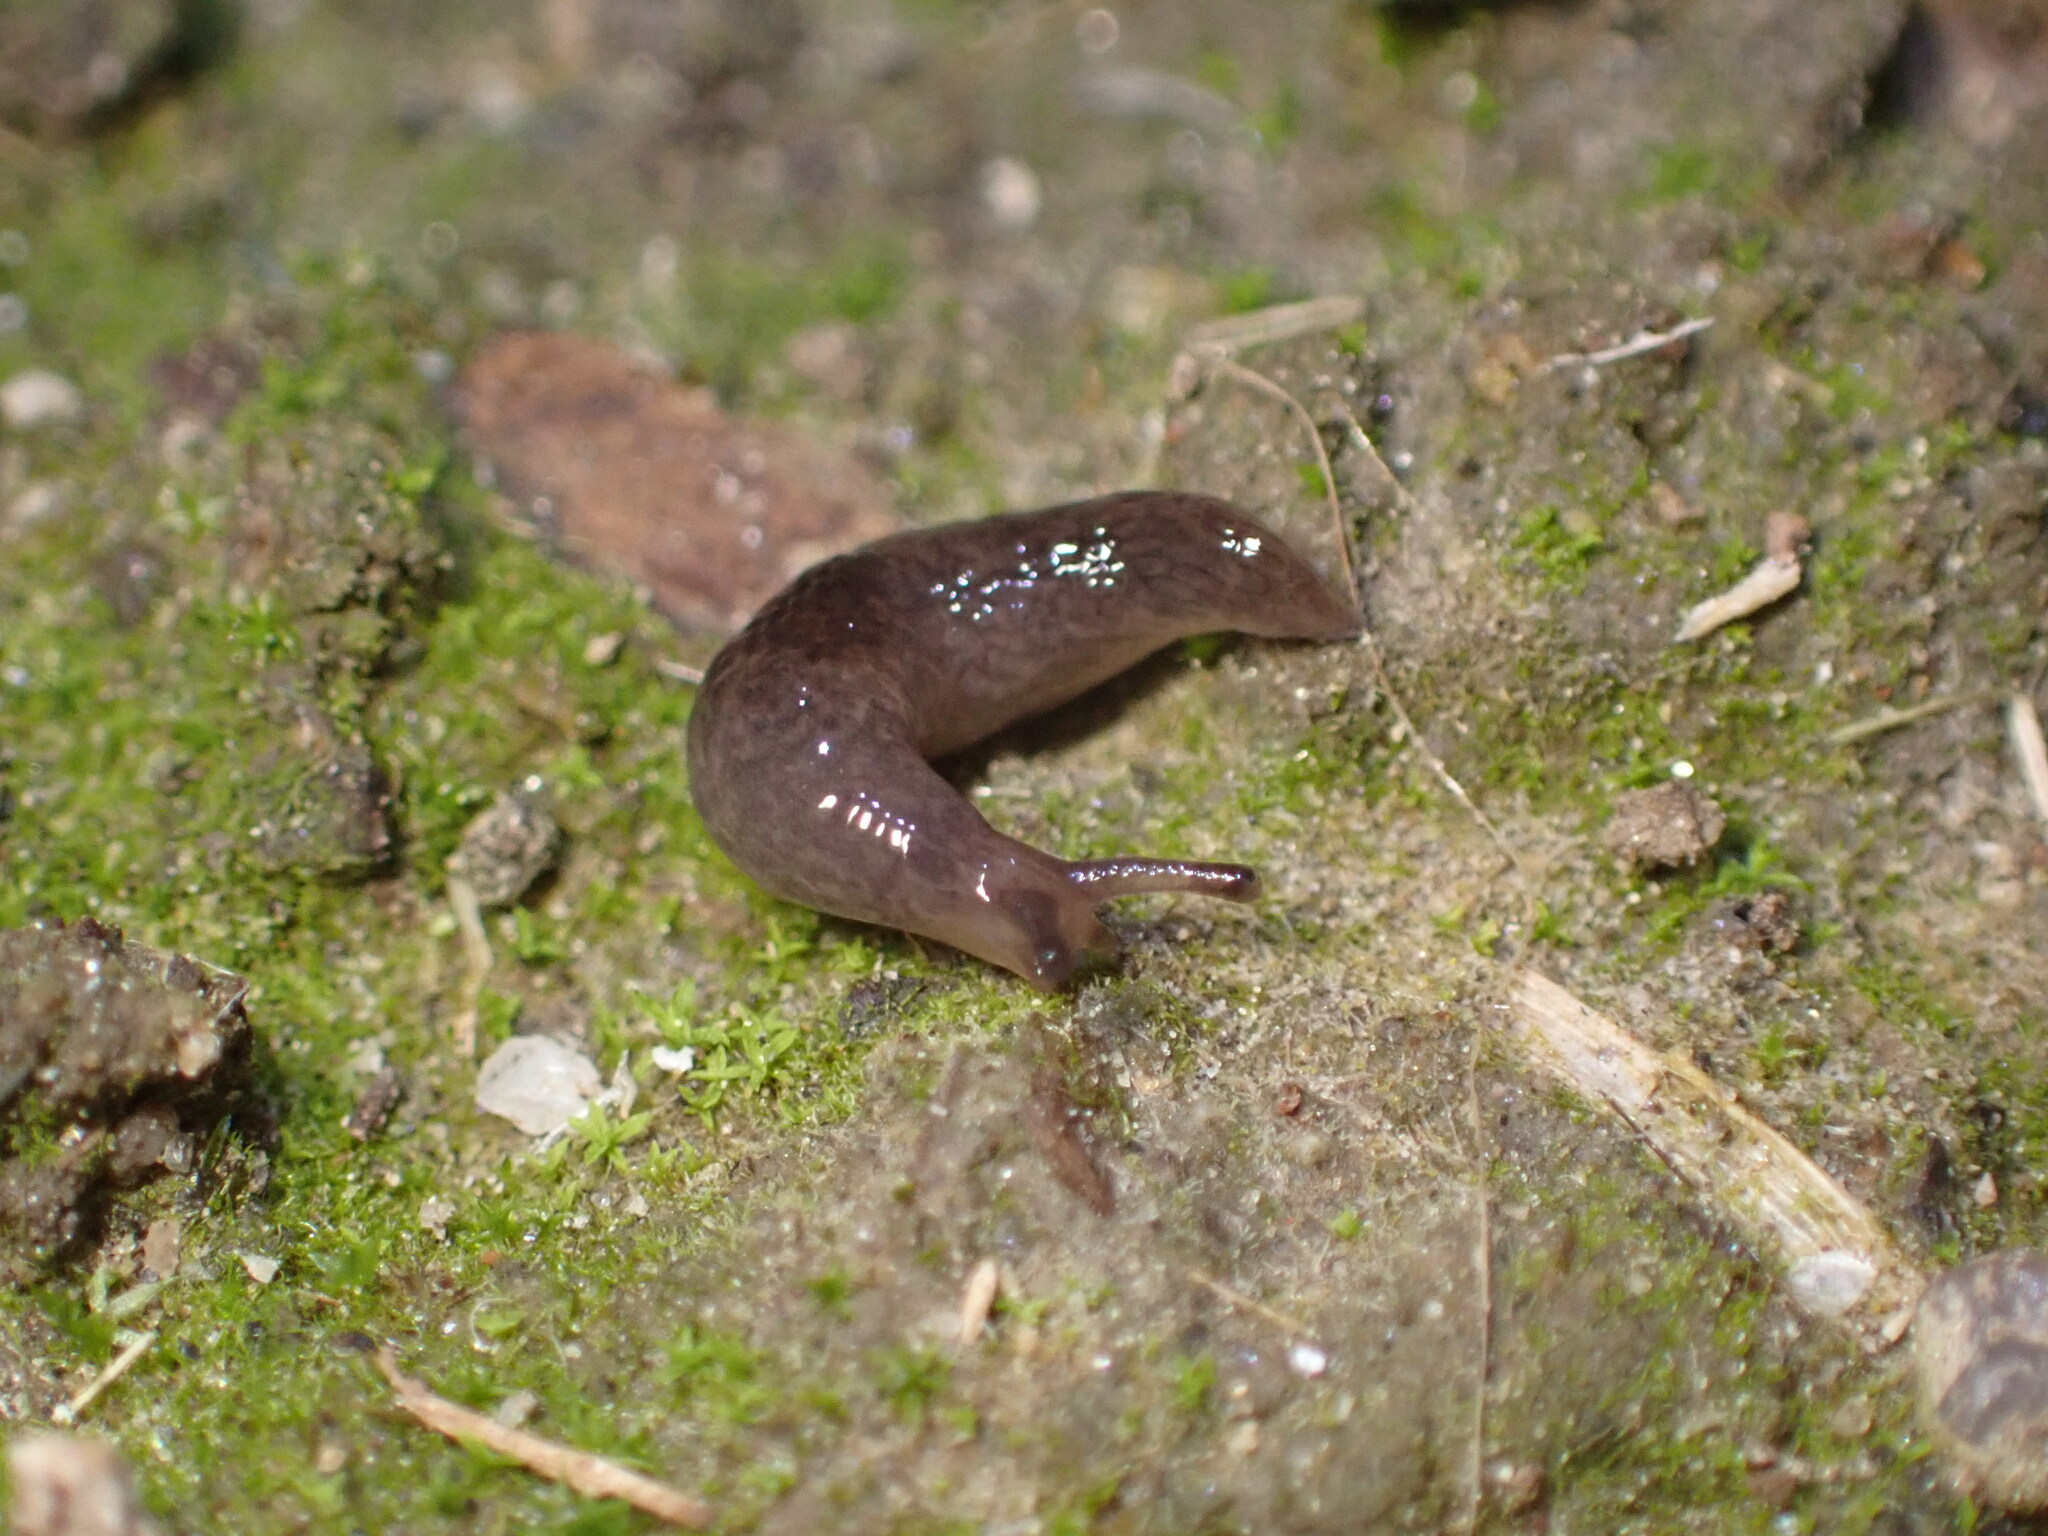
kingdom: Animalia
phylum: Mollusca
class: Gastropoda
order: Stylommatophora
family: Agriolimacidae
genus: Deroceras
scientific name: Deroceras laeve
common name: Marsh slug
